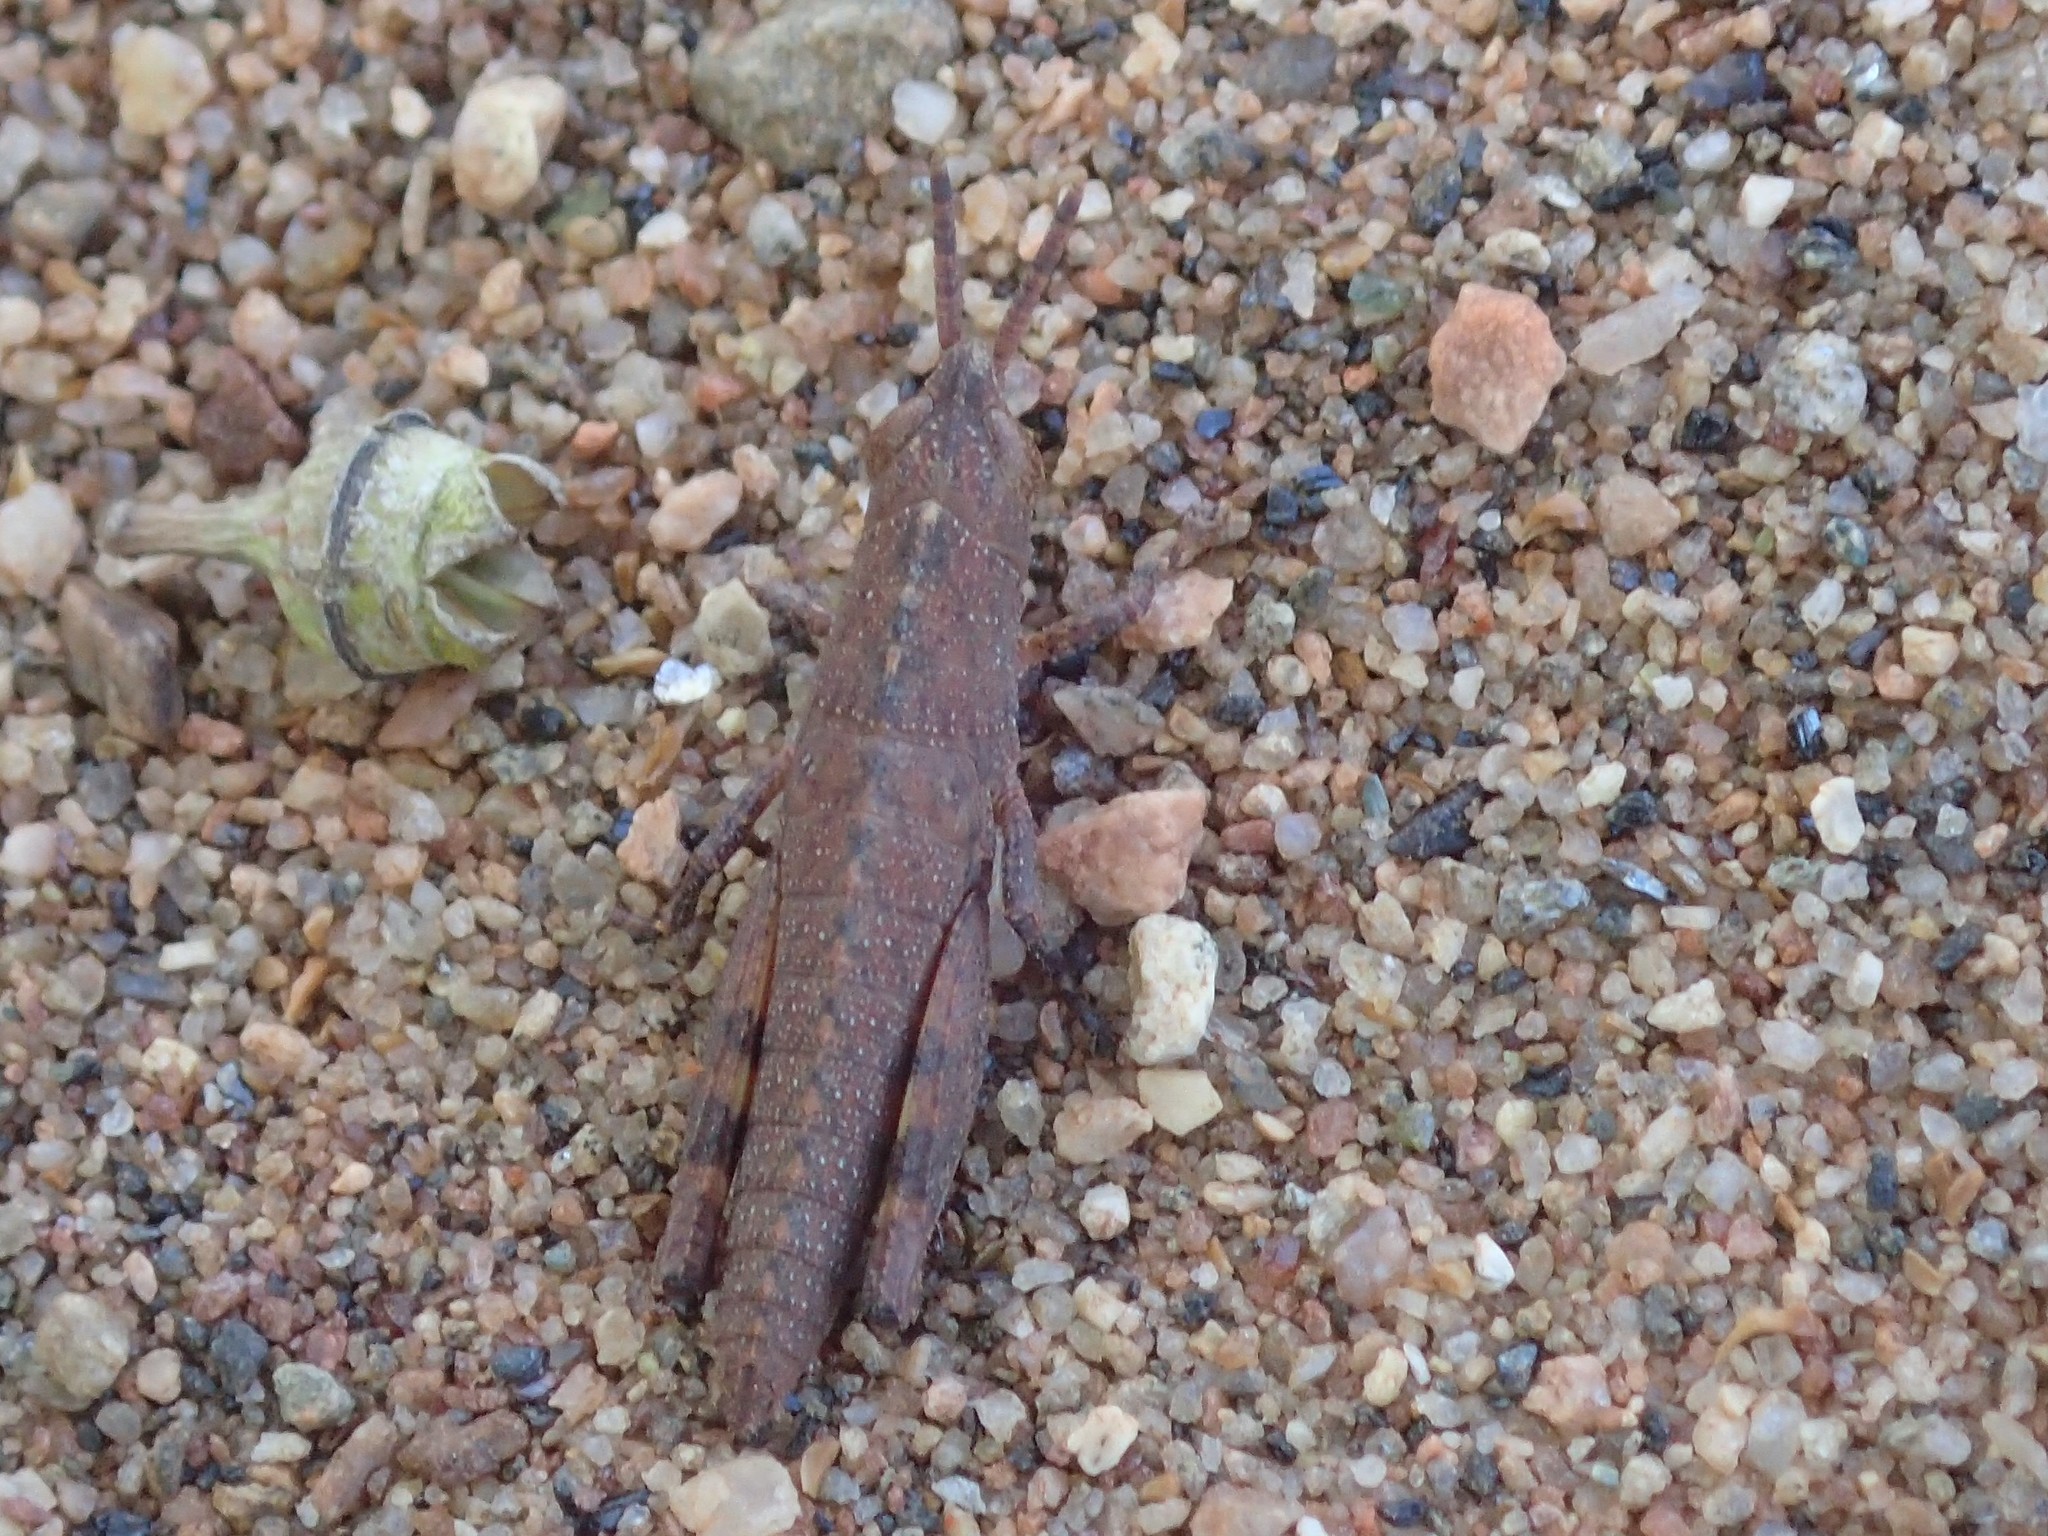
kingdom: Animalia
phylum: Arthropoda
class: Insecta
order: Orthoptera
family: Acrididae
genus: Goniaea
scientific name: Goniaea vocans
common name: Slender gumleaf grasshopper
